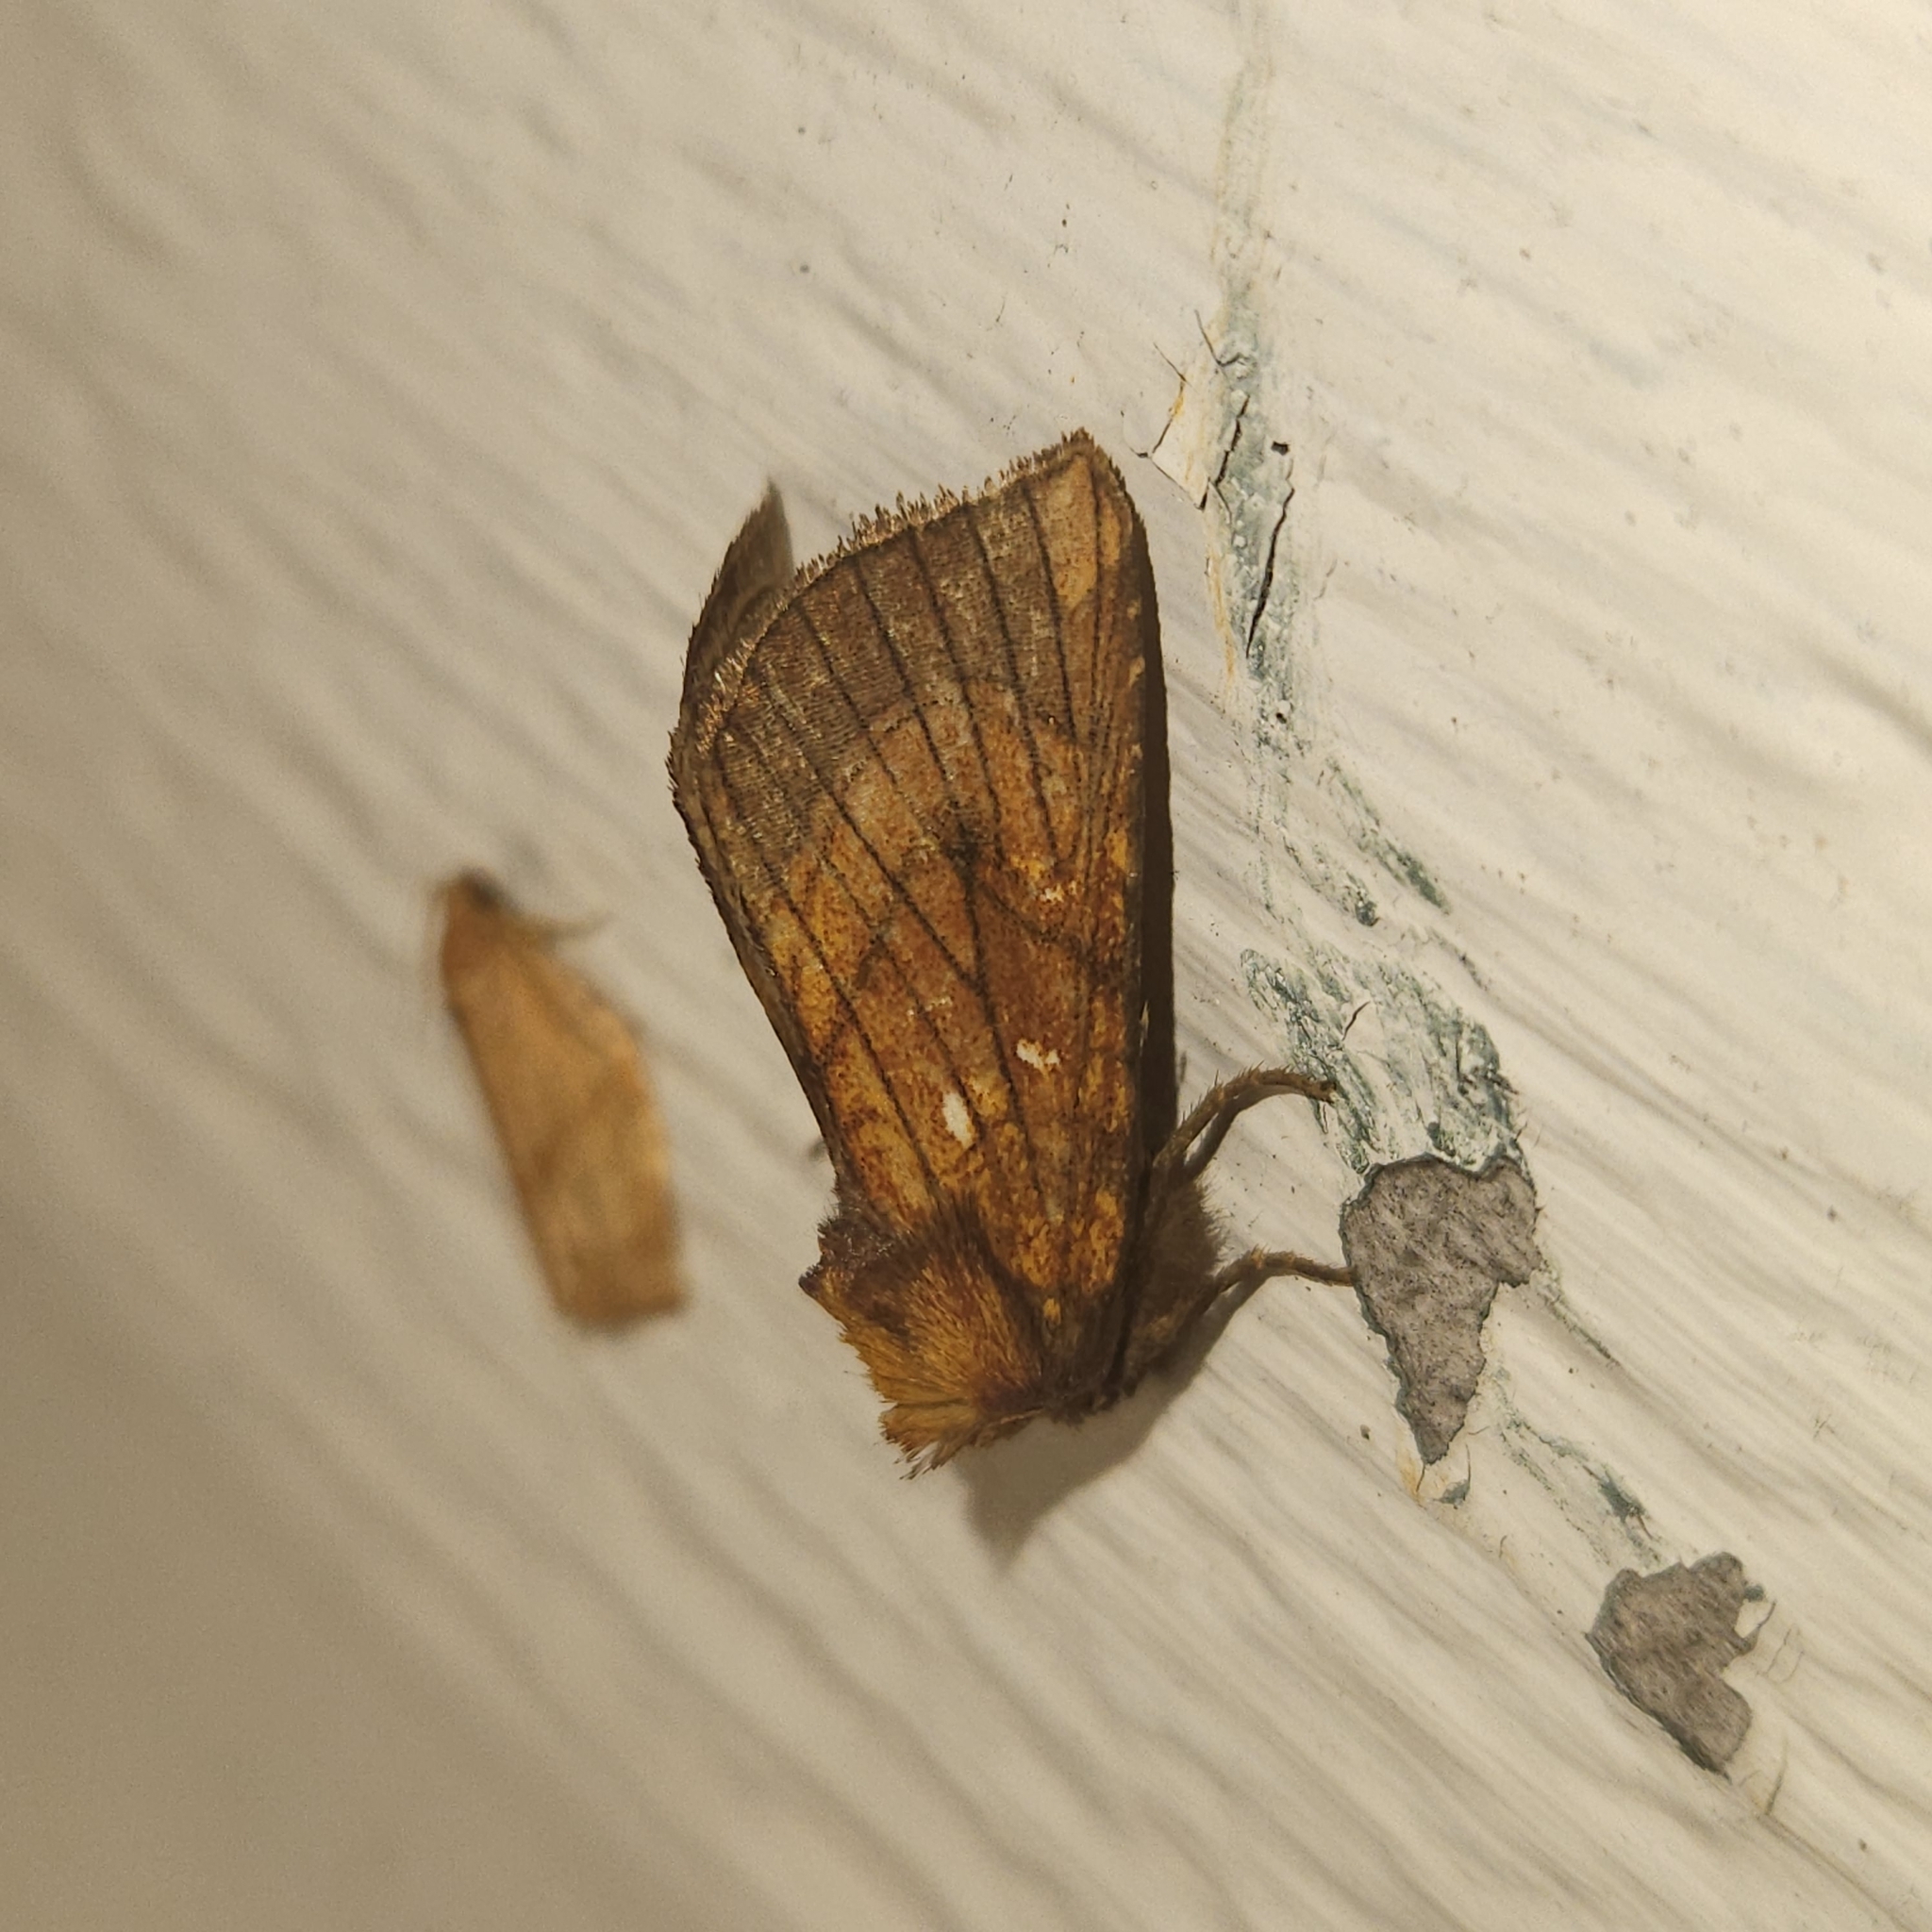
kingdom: Animalia
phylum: Arthropoda
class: Insecta
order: Lepidoptera
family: Noctuidae
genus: Papaipema
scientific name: Papaipema inquaesita
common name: Sensitive fern borer moth
